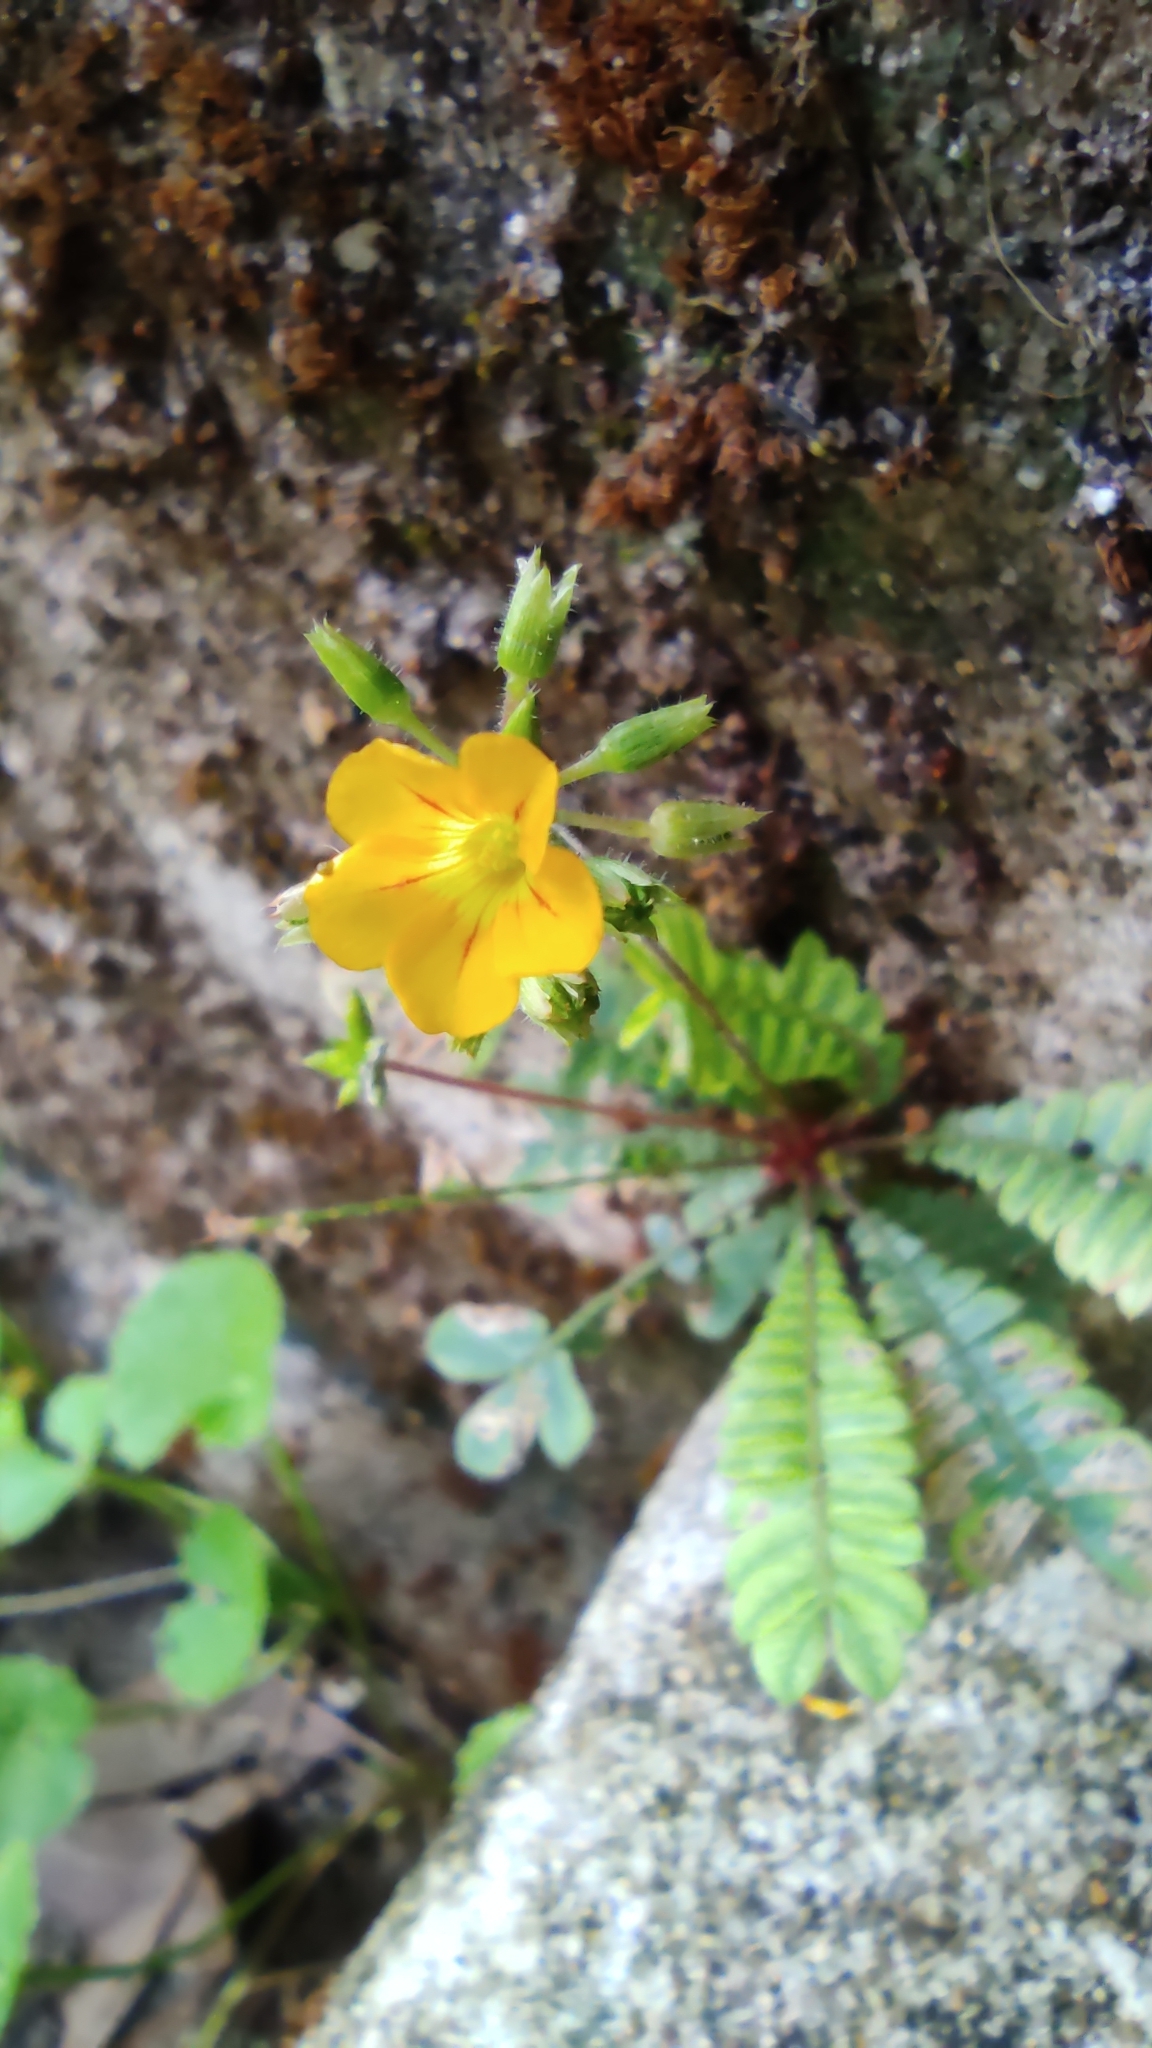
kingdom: Plantae
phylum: Tracheophyta
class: Magnoliopsida
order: Oxalidales
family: Oxalidaceae
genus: Biophytum
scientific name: Biophytum sensitivum
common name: Lifeplant
